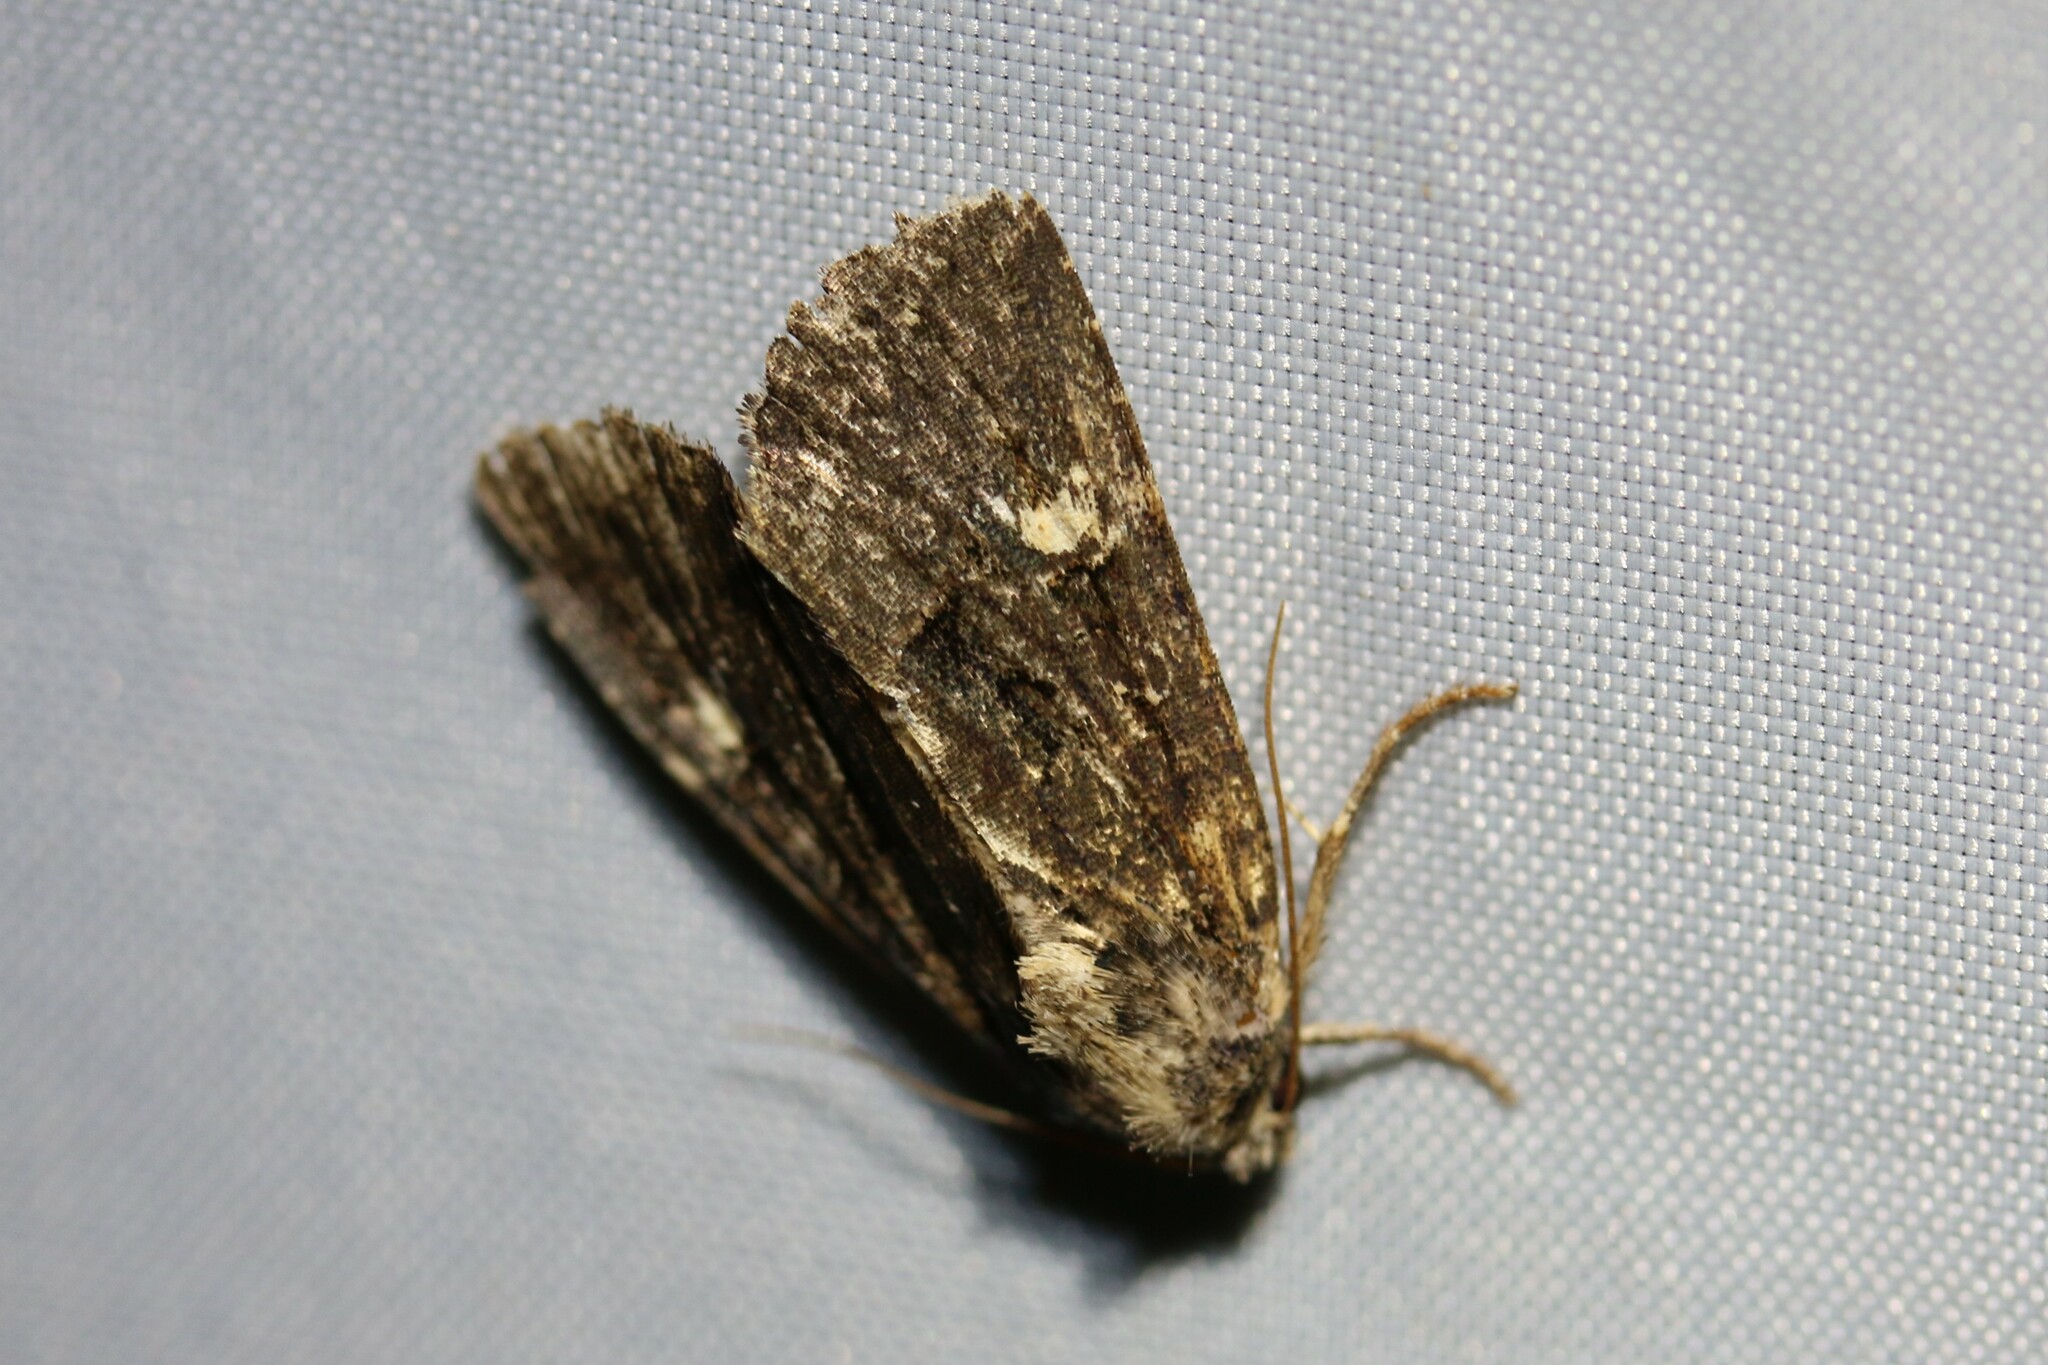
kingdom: Animalia
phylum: Arthropoda
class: Insecta
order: Lepidoptera
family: Noctuidae
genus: Mesapamea
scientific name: Mesapamea
